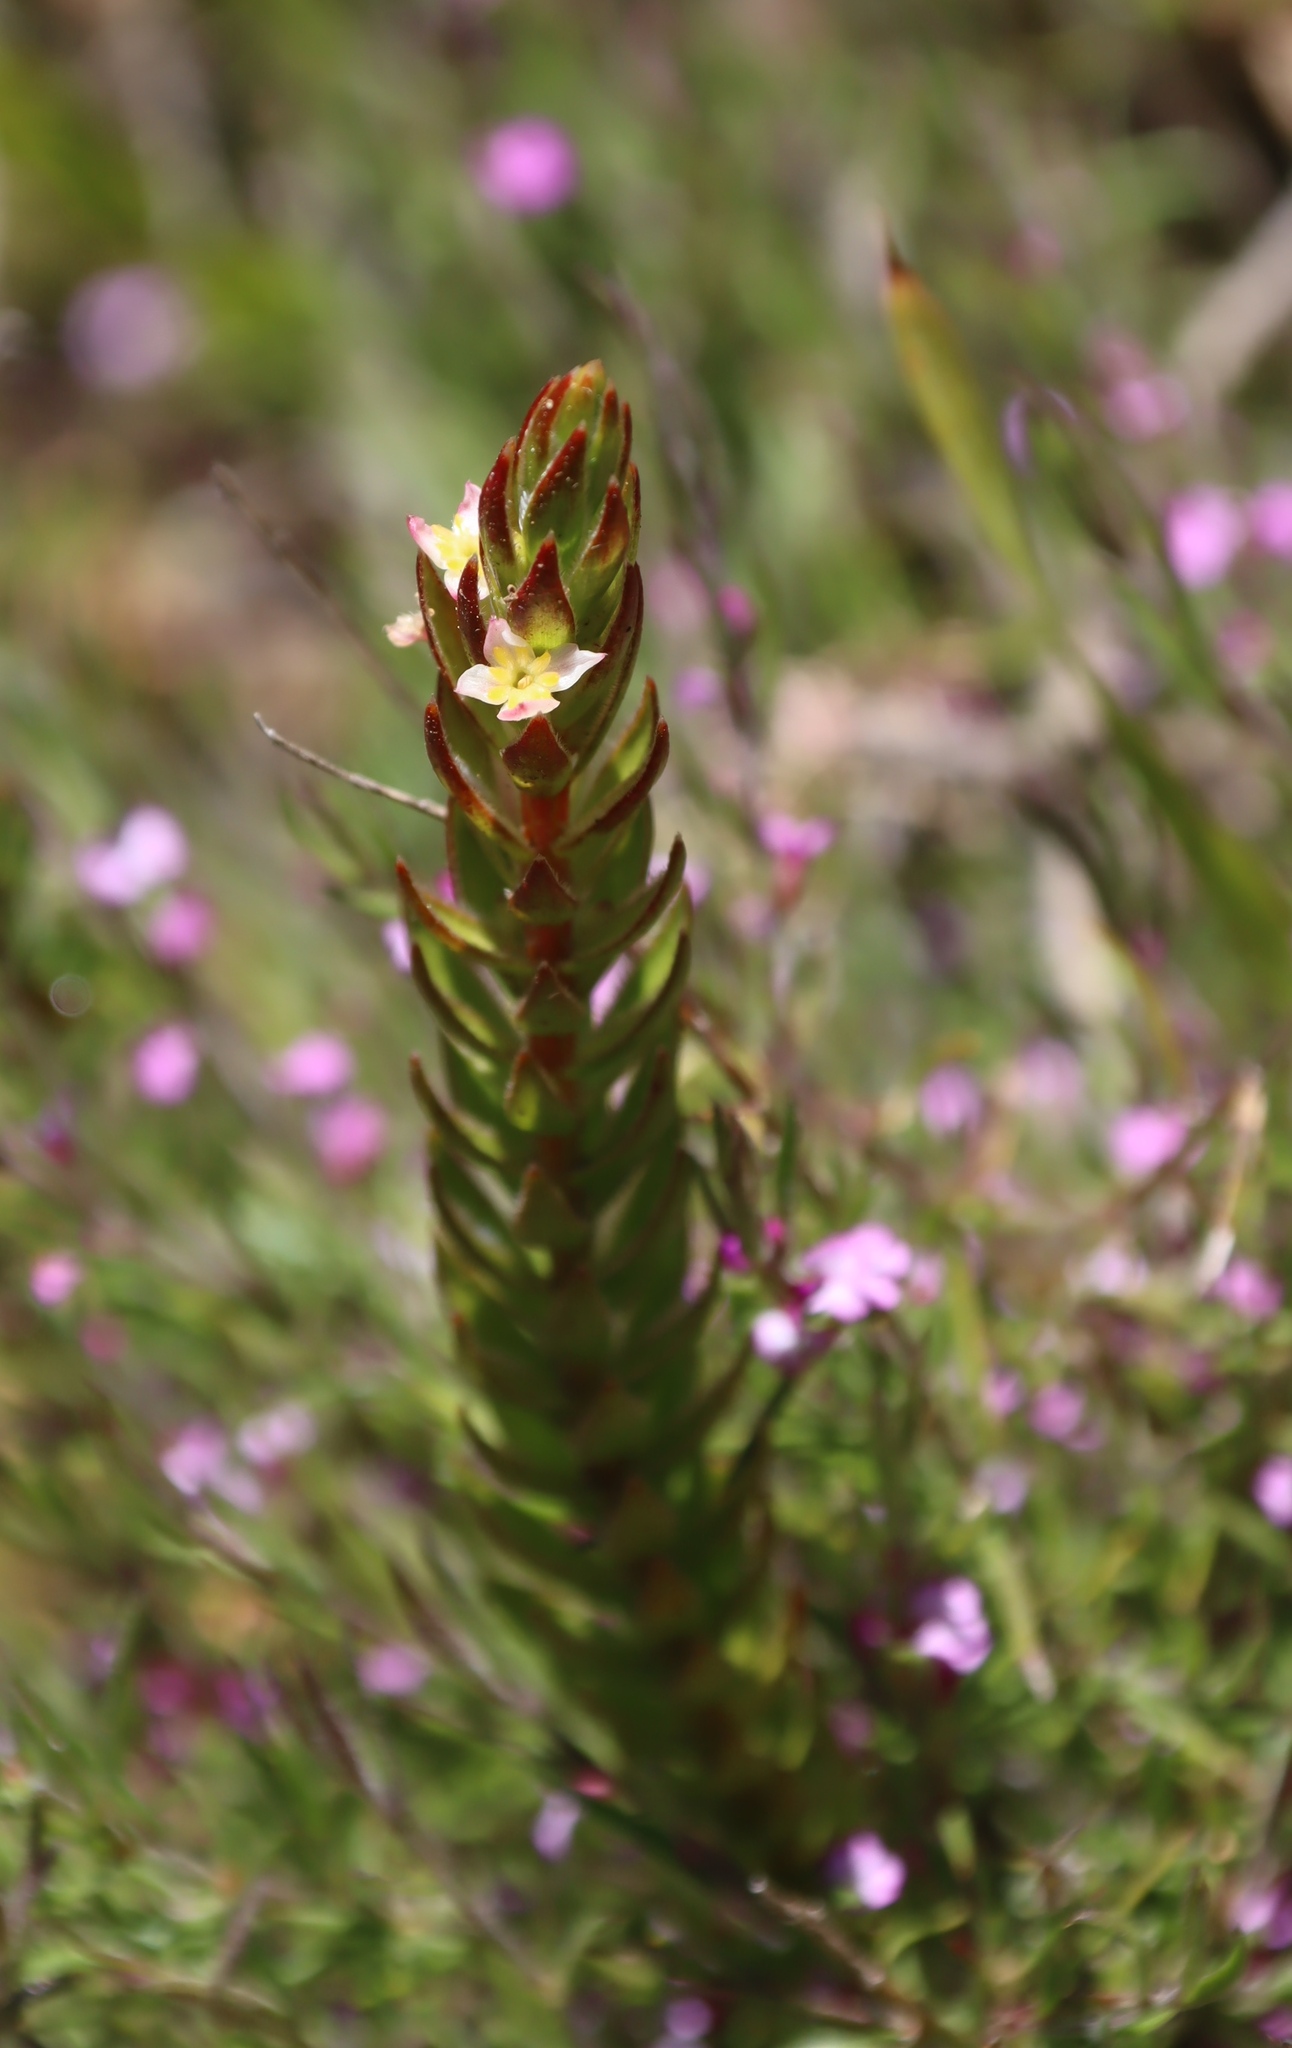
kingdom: Plantae
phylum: Tracheophyta
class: Magnoliopsida
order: Malvales
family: Thymelaeaceae
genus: Struthiola
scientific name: Struthiola ciliata
